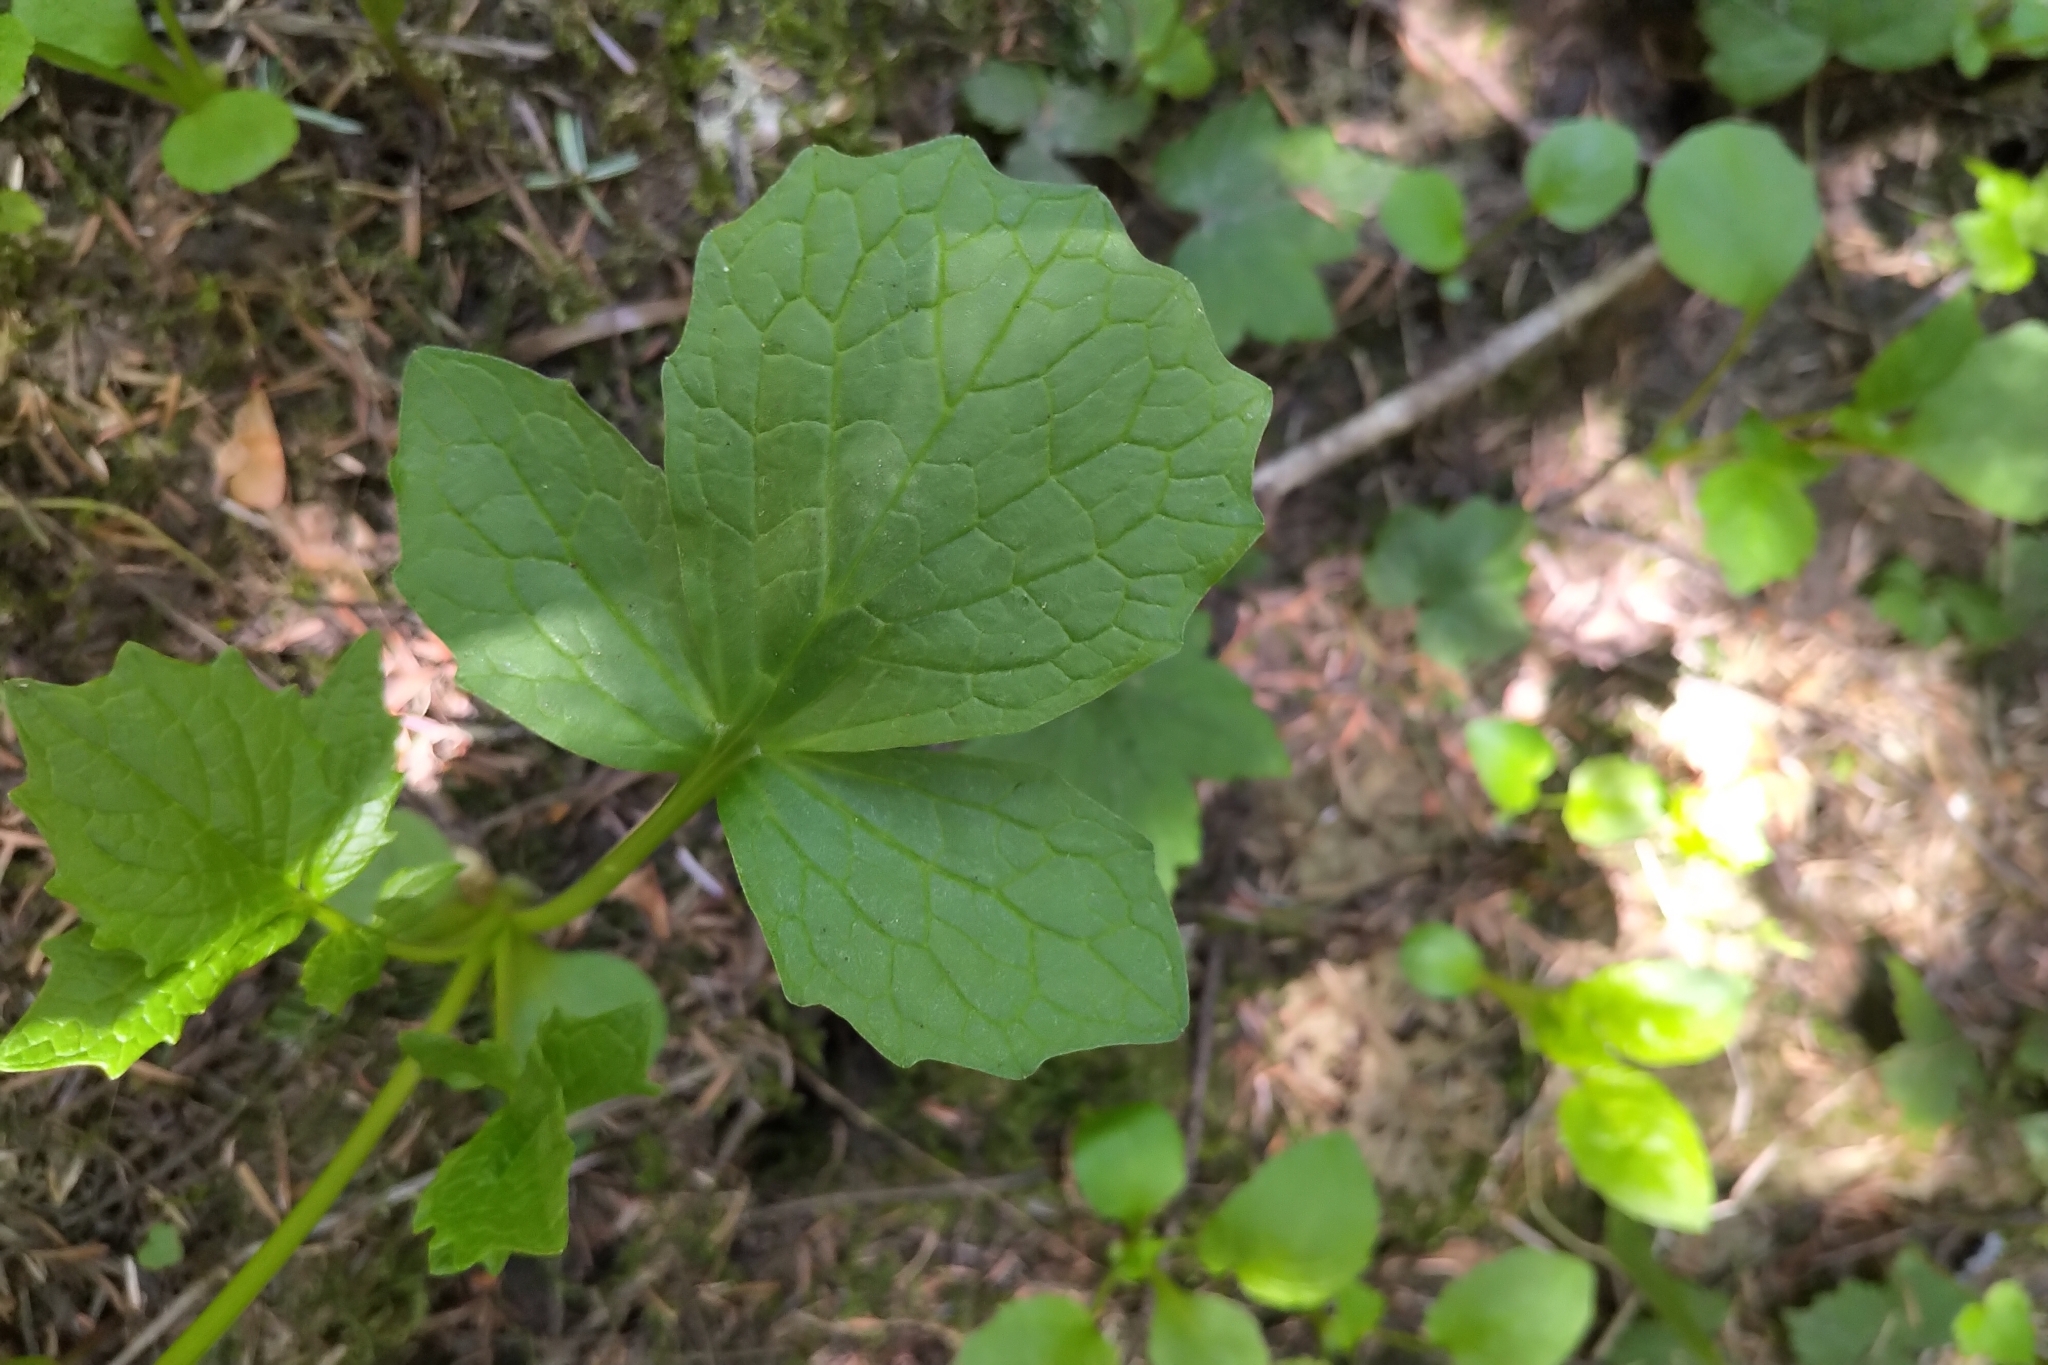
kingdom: Plantae
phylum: Tracheophyta
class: Magnoliopsida
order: Dipsacales
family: Caprifoliaceae
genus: Valeriana
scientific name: Valeriana sitchensis
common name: Pacific valerian
